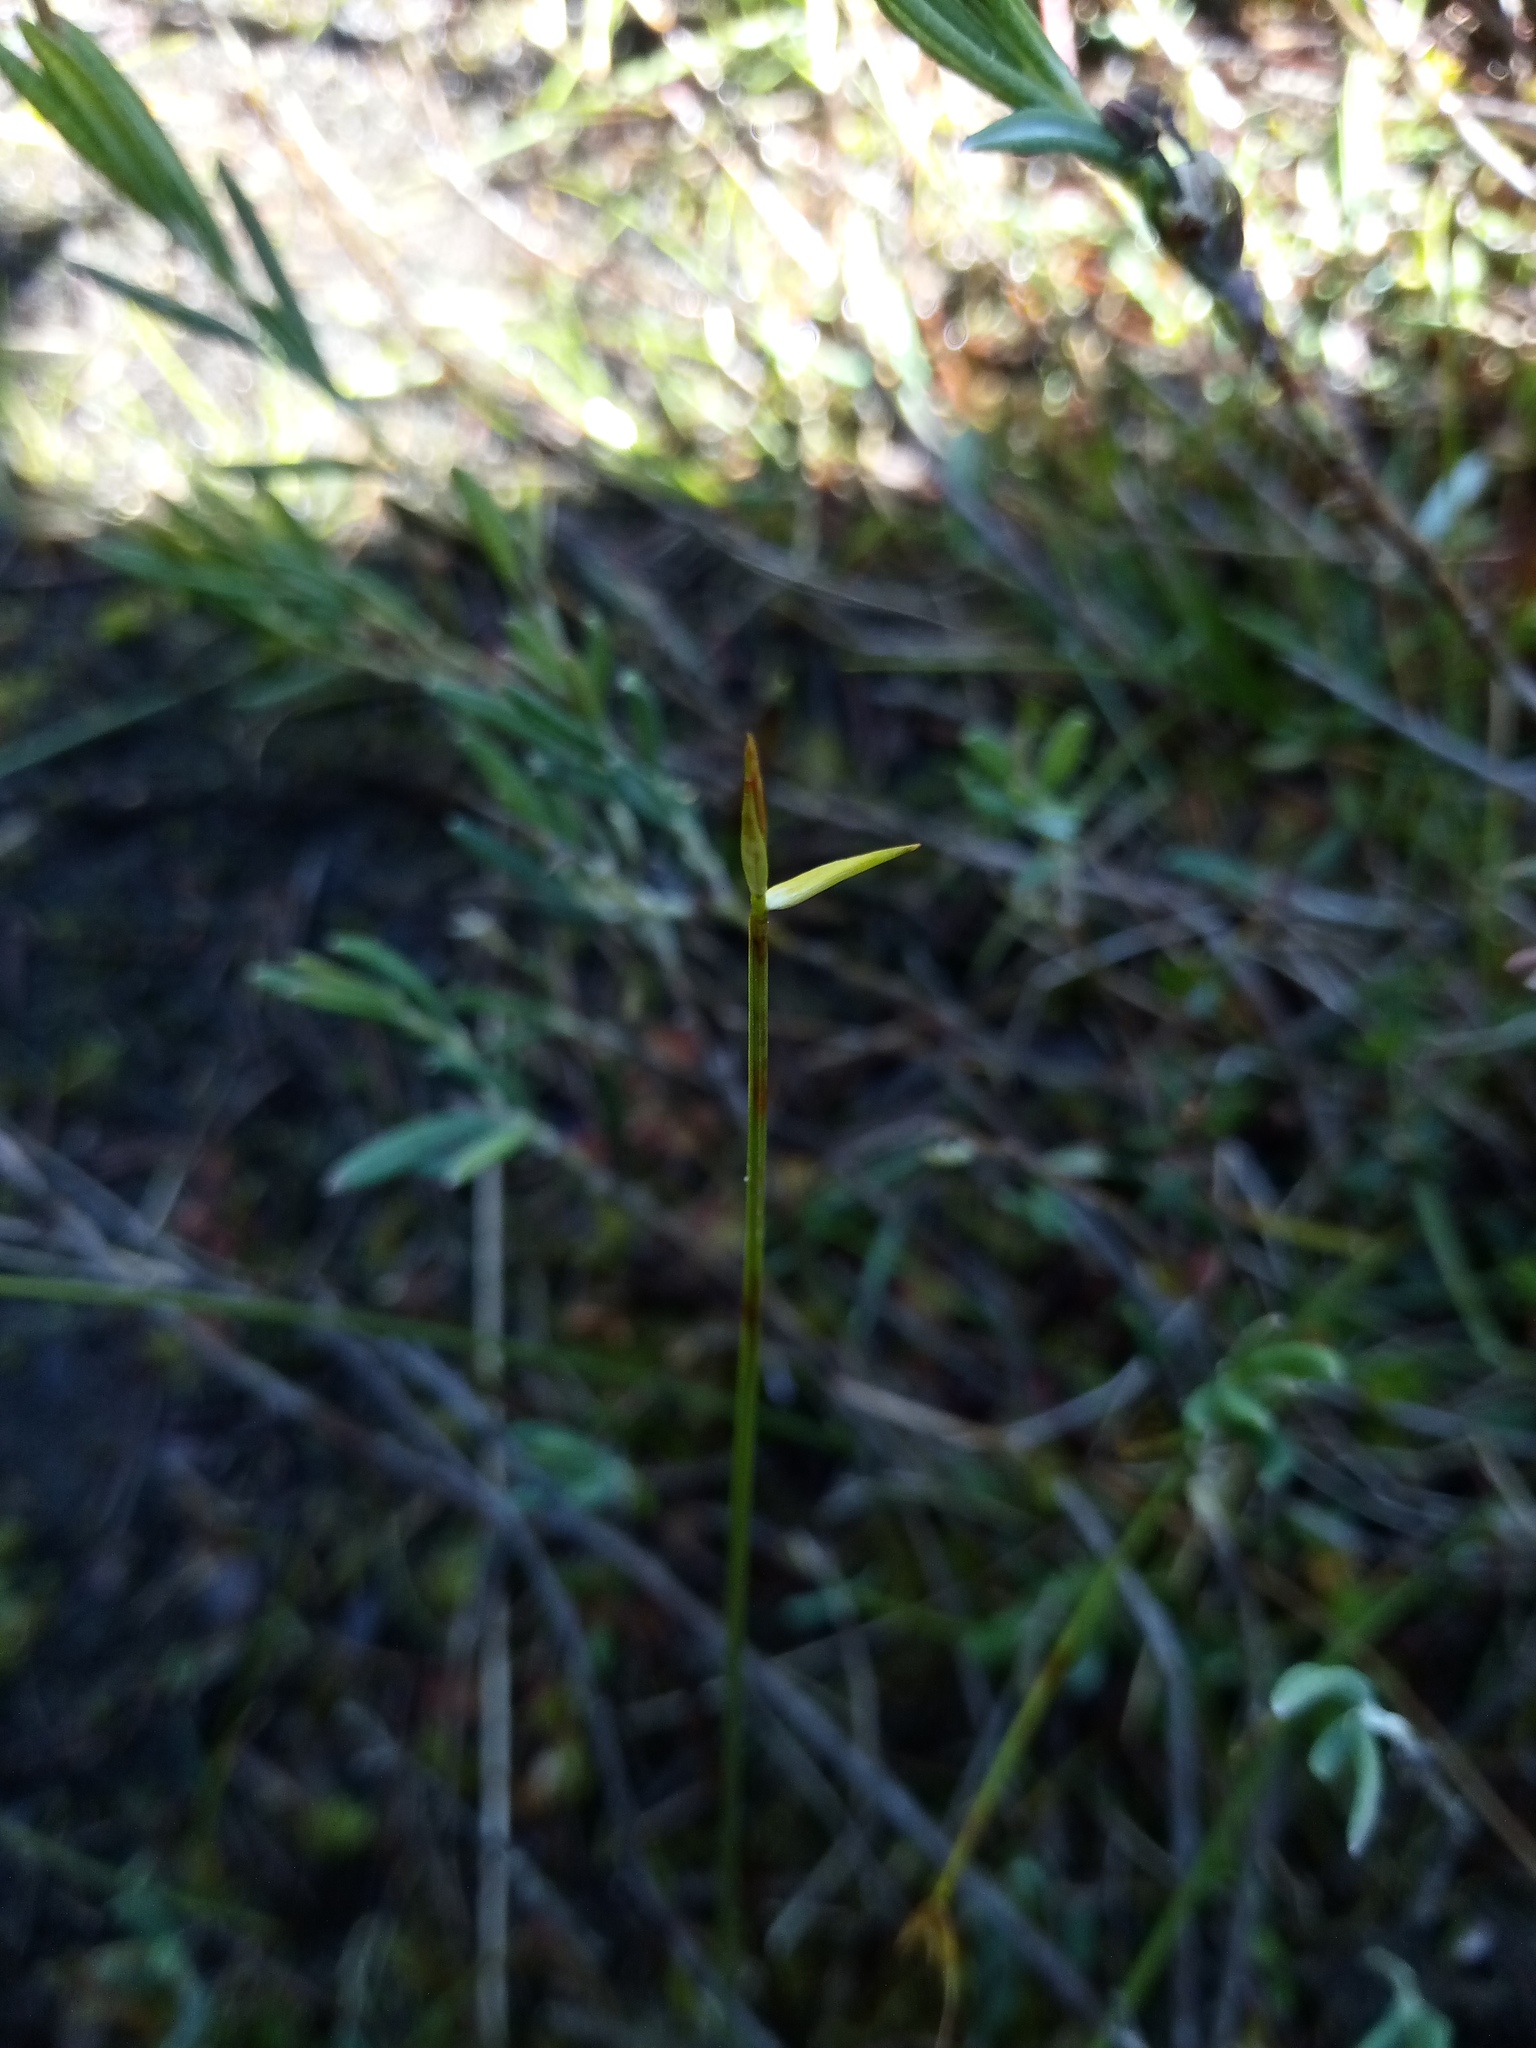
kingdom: Plantae
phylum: Tracheophyta
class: Liliopsida
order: Poales
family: Cyperaceae
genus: Carex
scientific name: Carex pauciflora
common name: Few-flowered sedge
